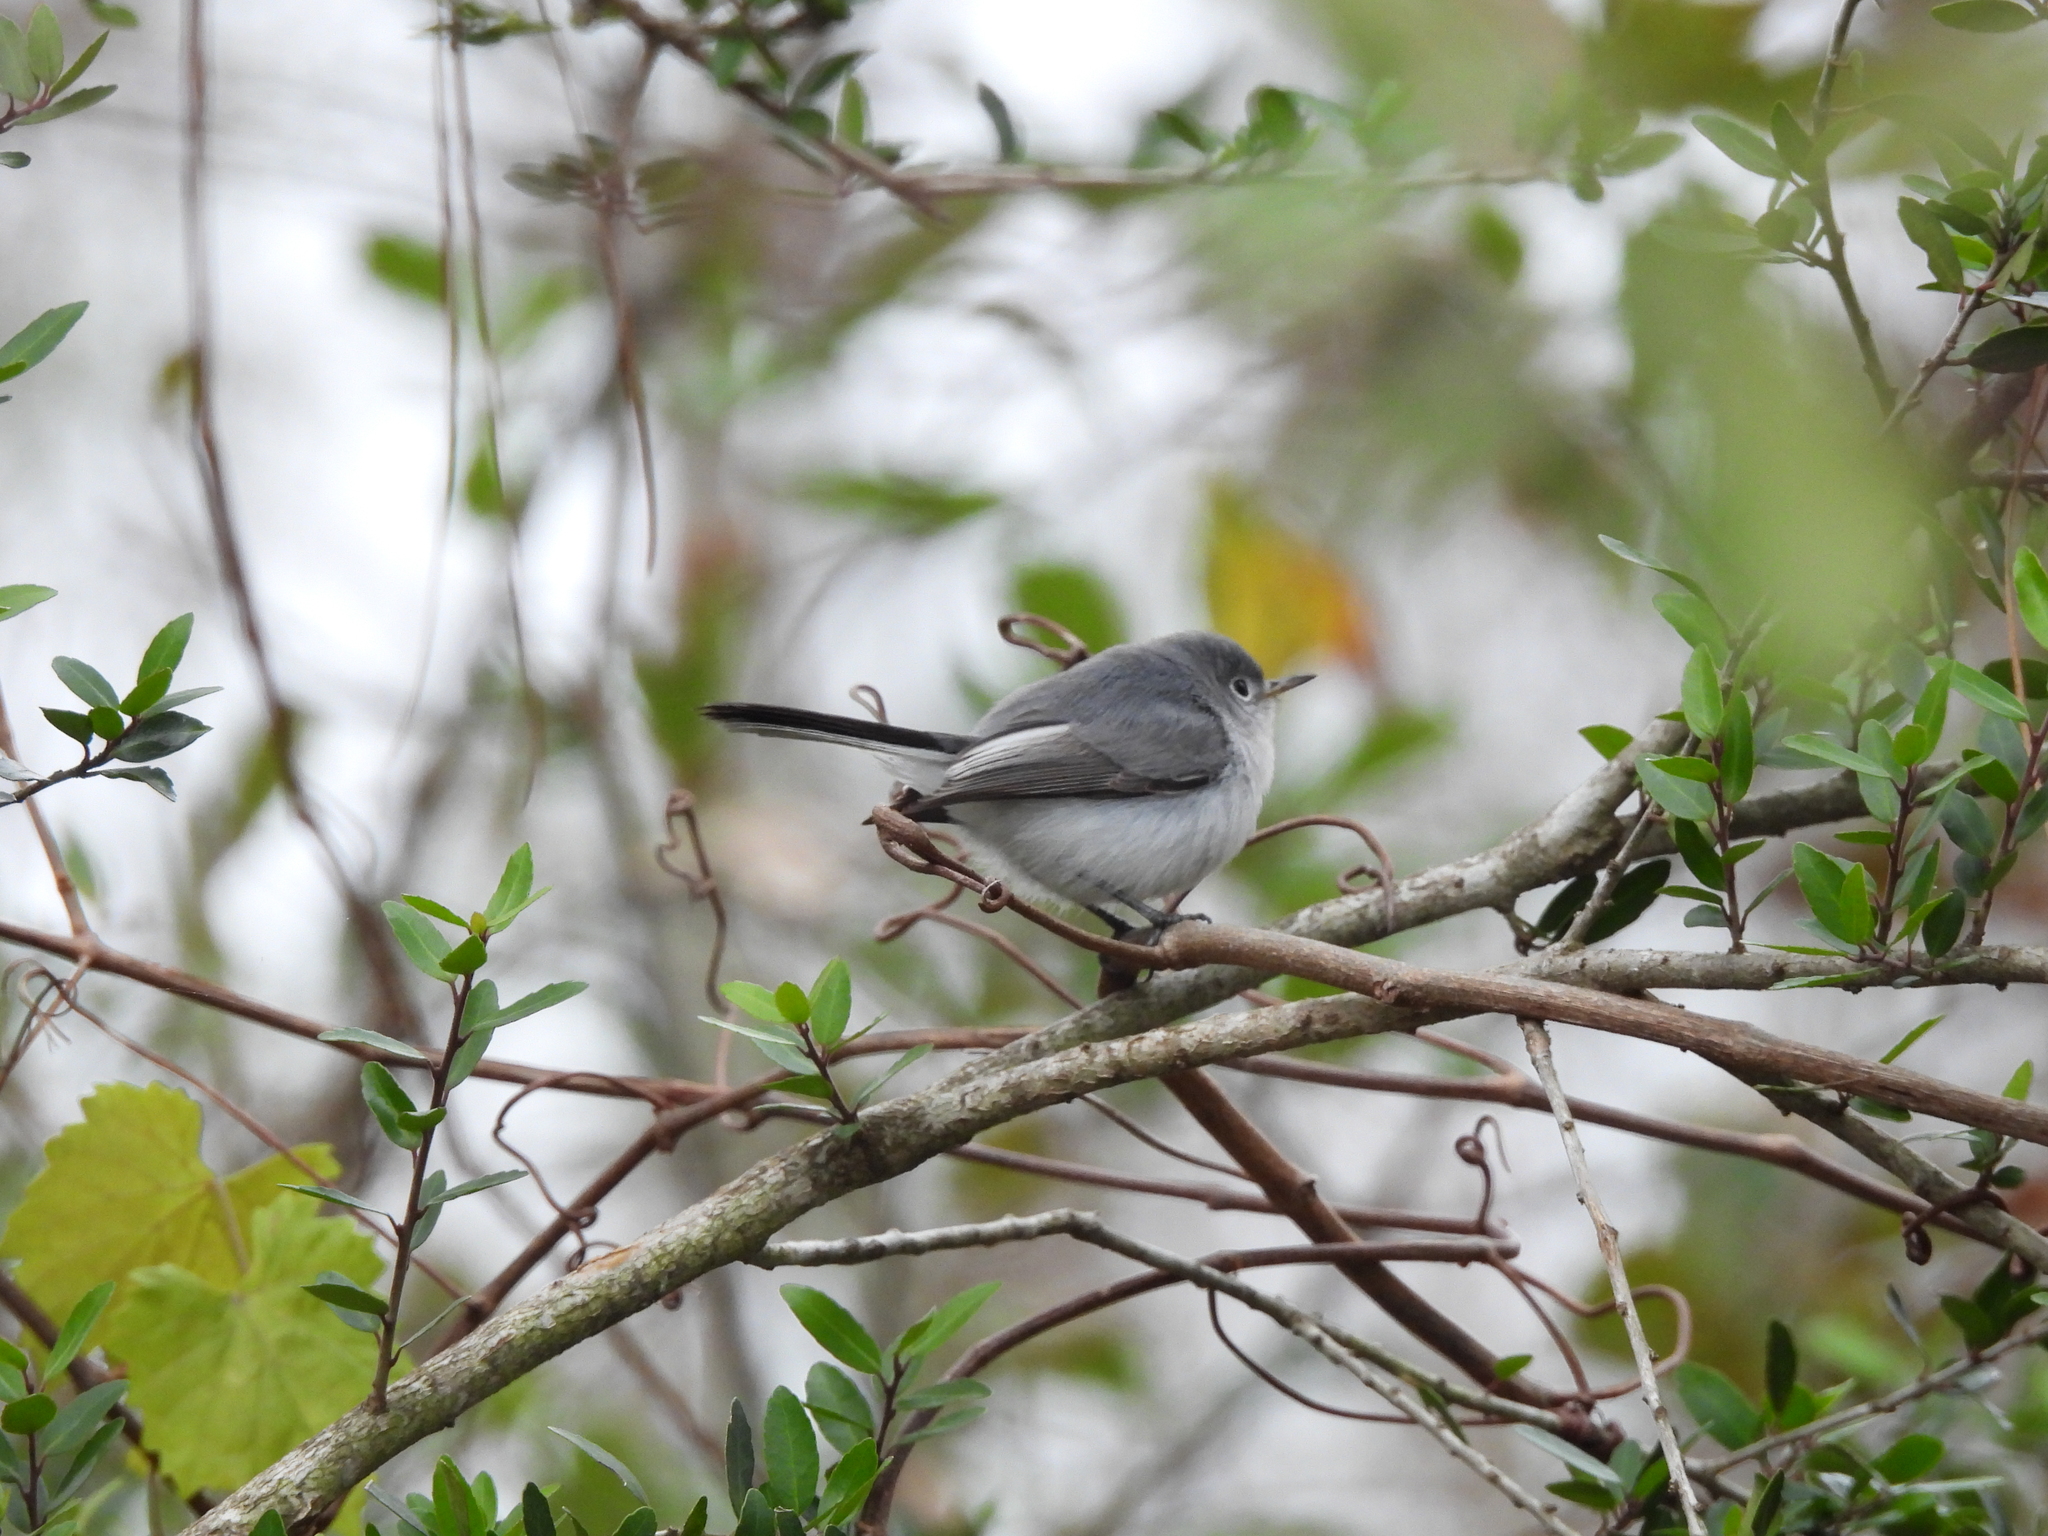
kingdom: Animalia
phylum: Chordata
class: Aves
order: Passeriformes
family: Polioptilidae
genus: Polioptila
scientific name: Polioptila caerulea
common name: Blue-gray gnatcatcher
